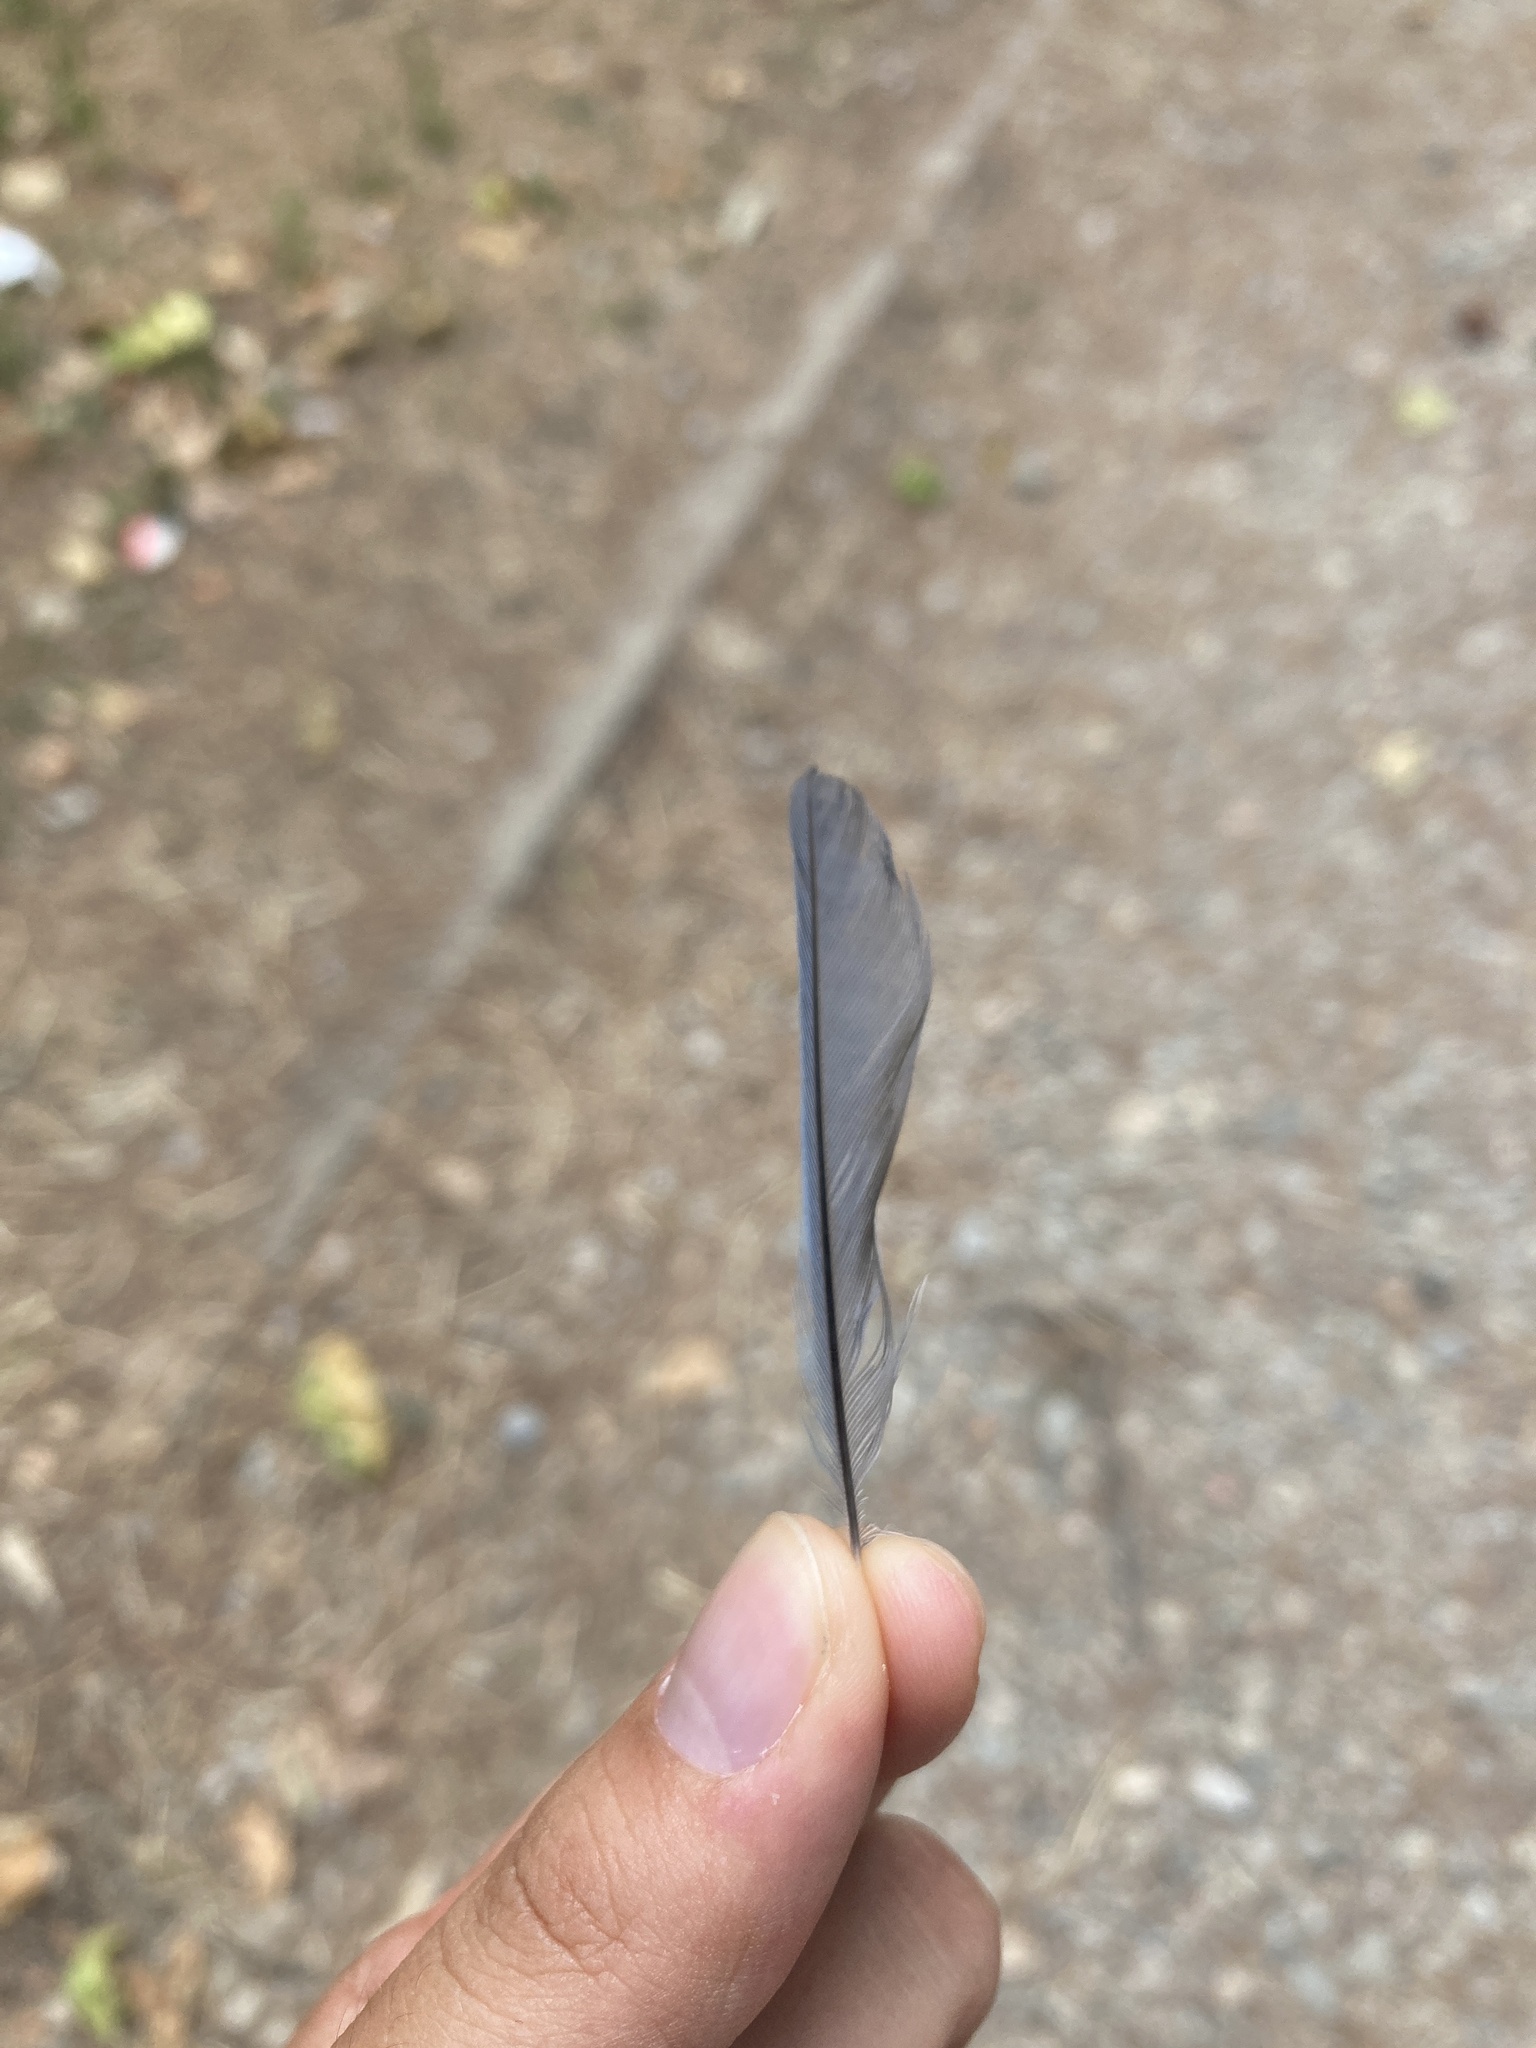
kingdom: Animalia
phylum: Chordata
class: Aves
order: Passeriformes
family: Paridae
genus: Cyanistes
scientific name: Cyanistes caeruleus
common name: Eurasian blue tit
